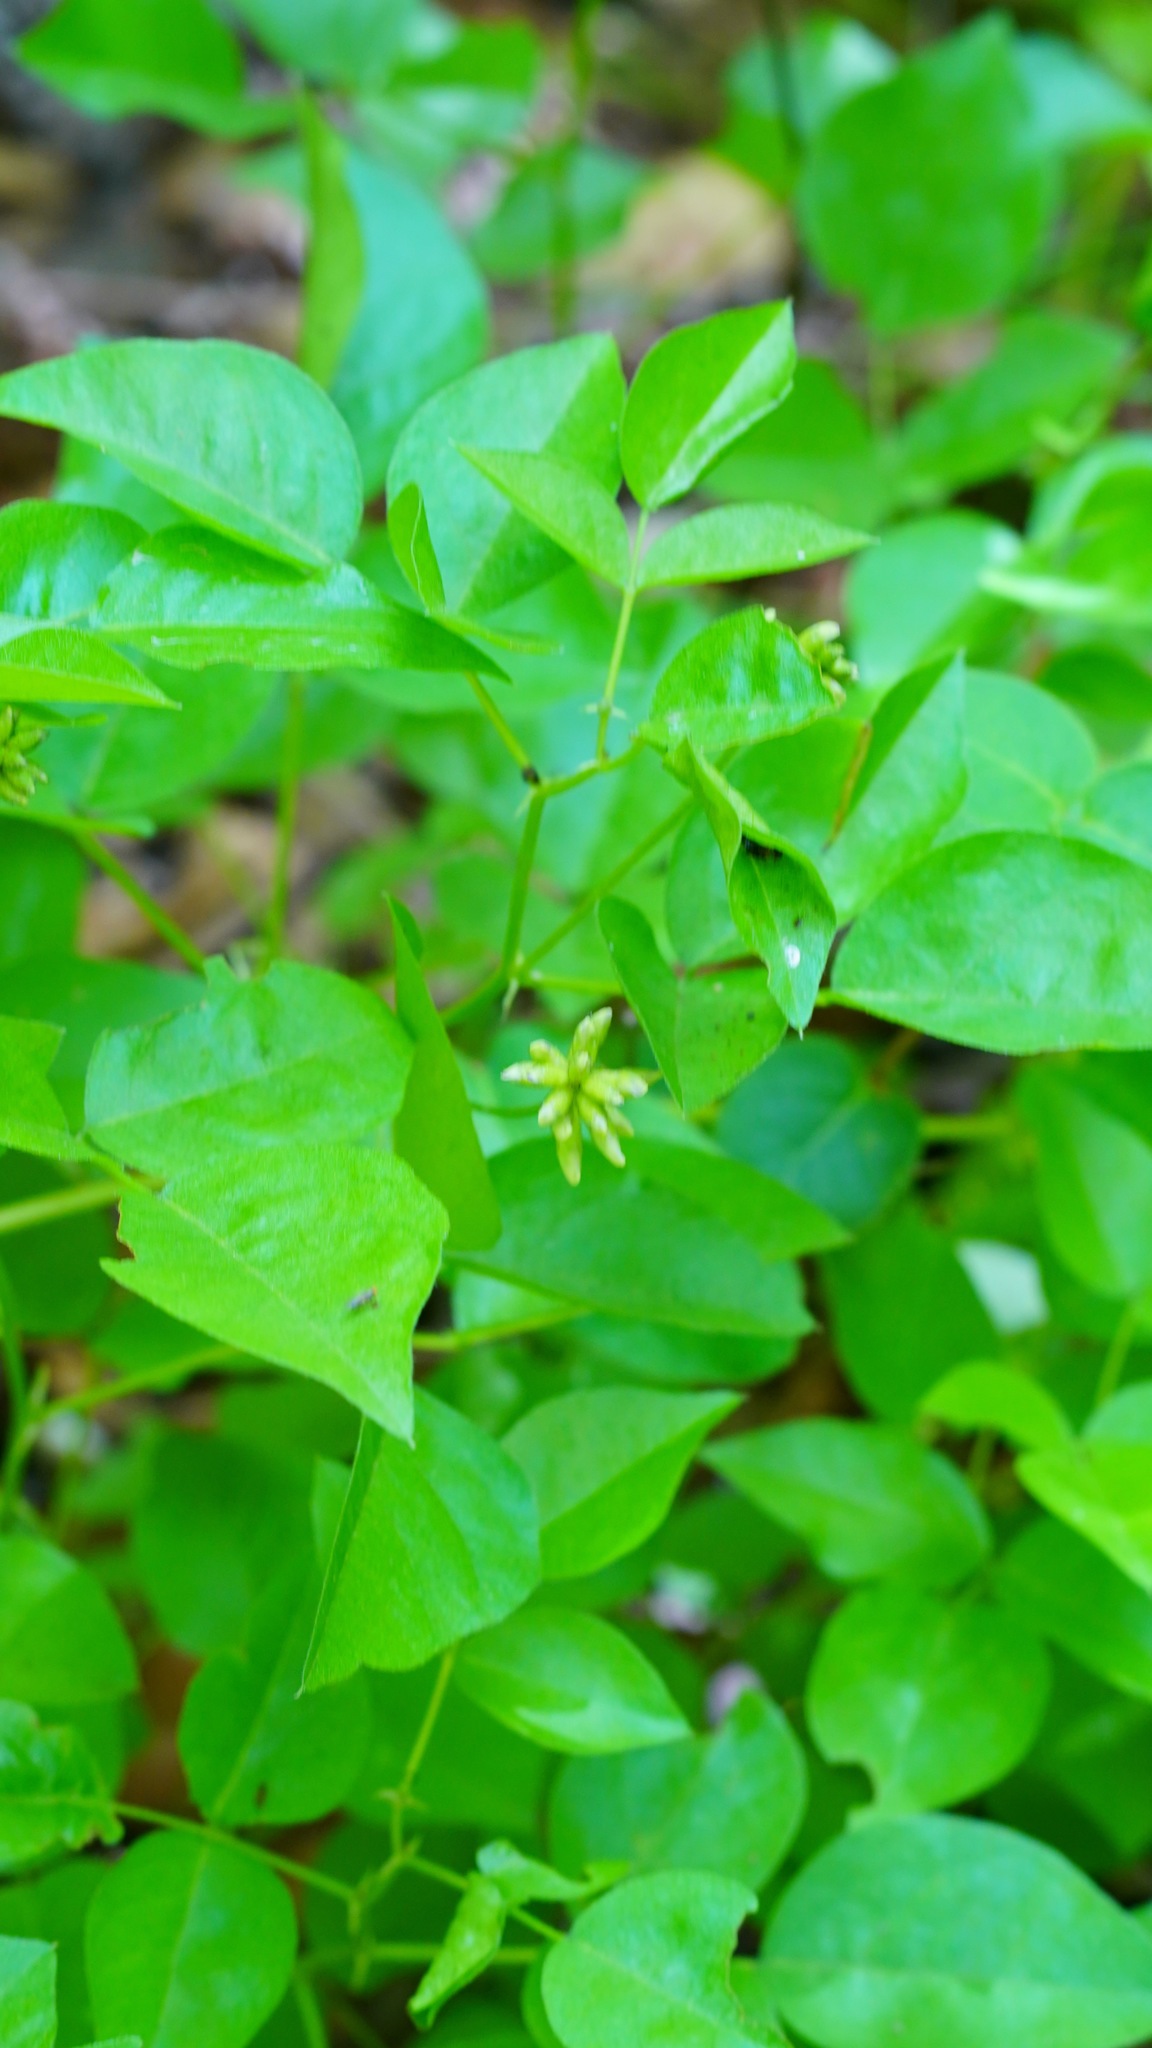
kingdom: Plantae
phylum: Tracheophyta
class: Magnoliopsida
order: Fabales
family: Fabaceae
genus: Rupertia
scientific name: Rupertia physodes
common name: California-tea
